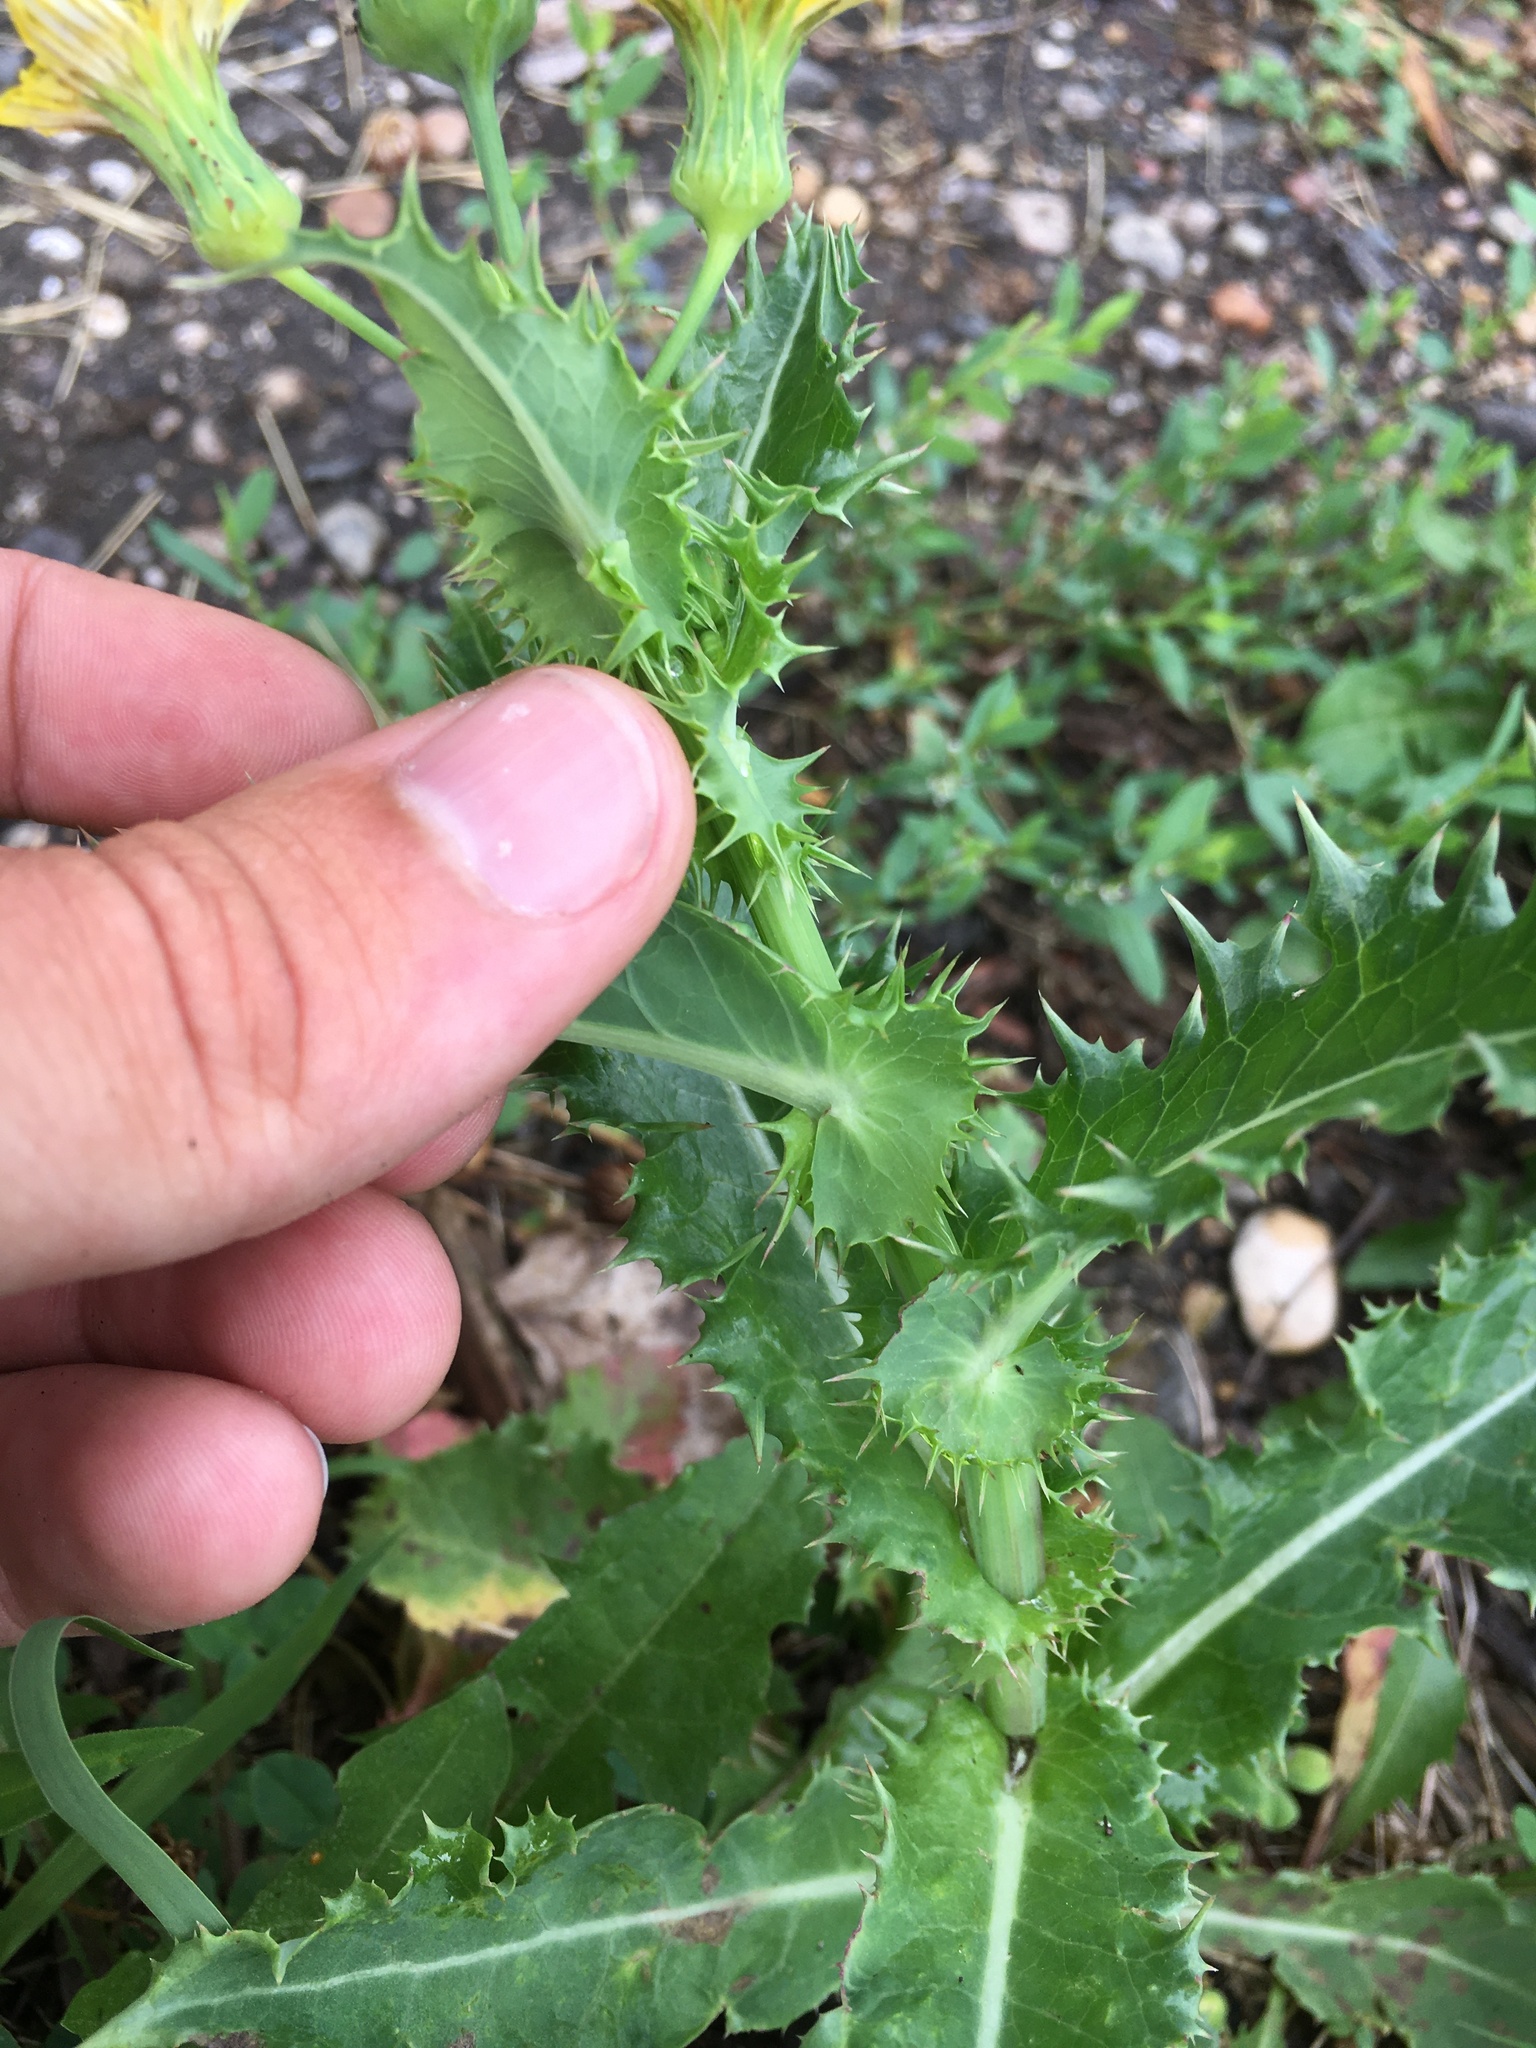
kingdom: Plantae
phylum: Tracheophyta
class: Magnoliopsida
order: Asterales
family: Asteraceae
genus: Sonchus
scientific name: Sonchus asper
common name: Prickly sow-thistle
